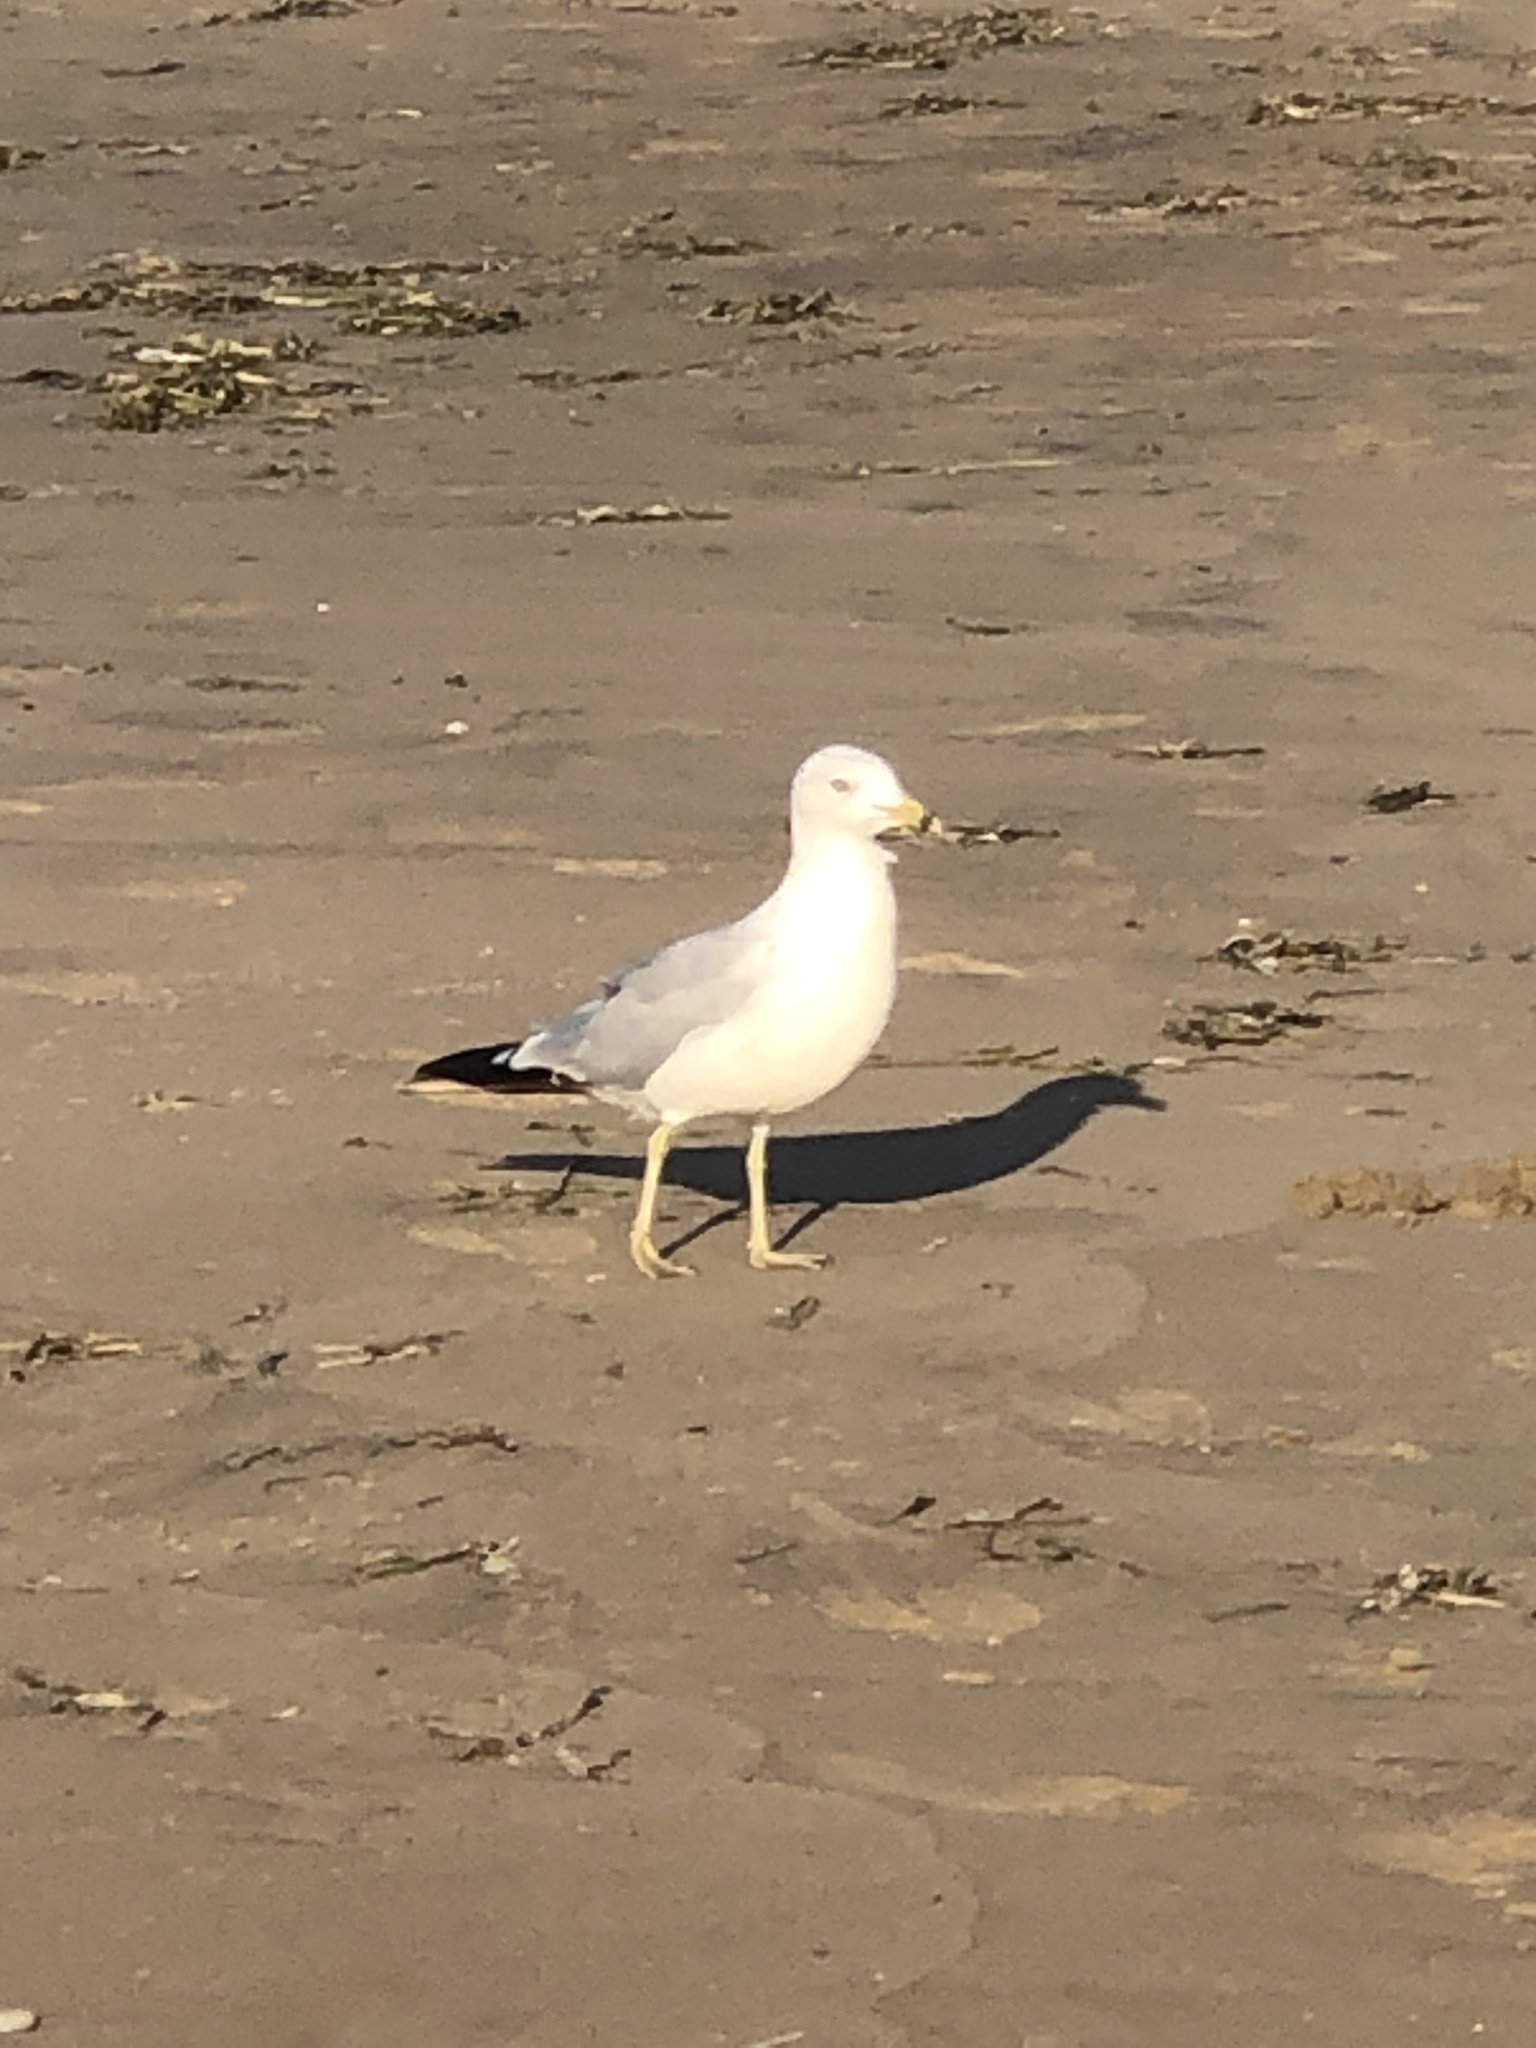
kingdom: Animalia
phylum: Chordata
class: Aves
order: Charadriiformes
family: Laridae
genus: Larus
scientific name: Larus delawarensis
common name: Ring-billed gull
